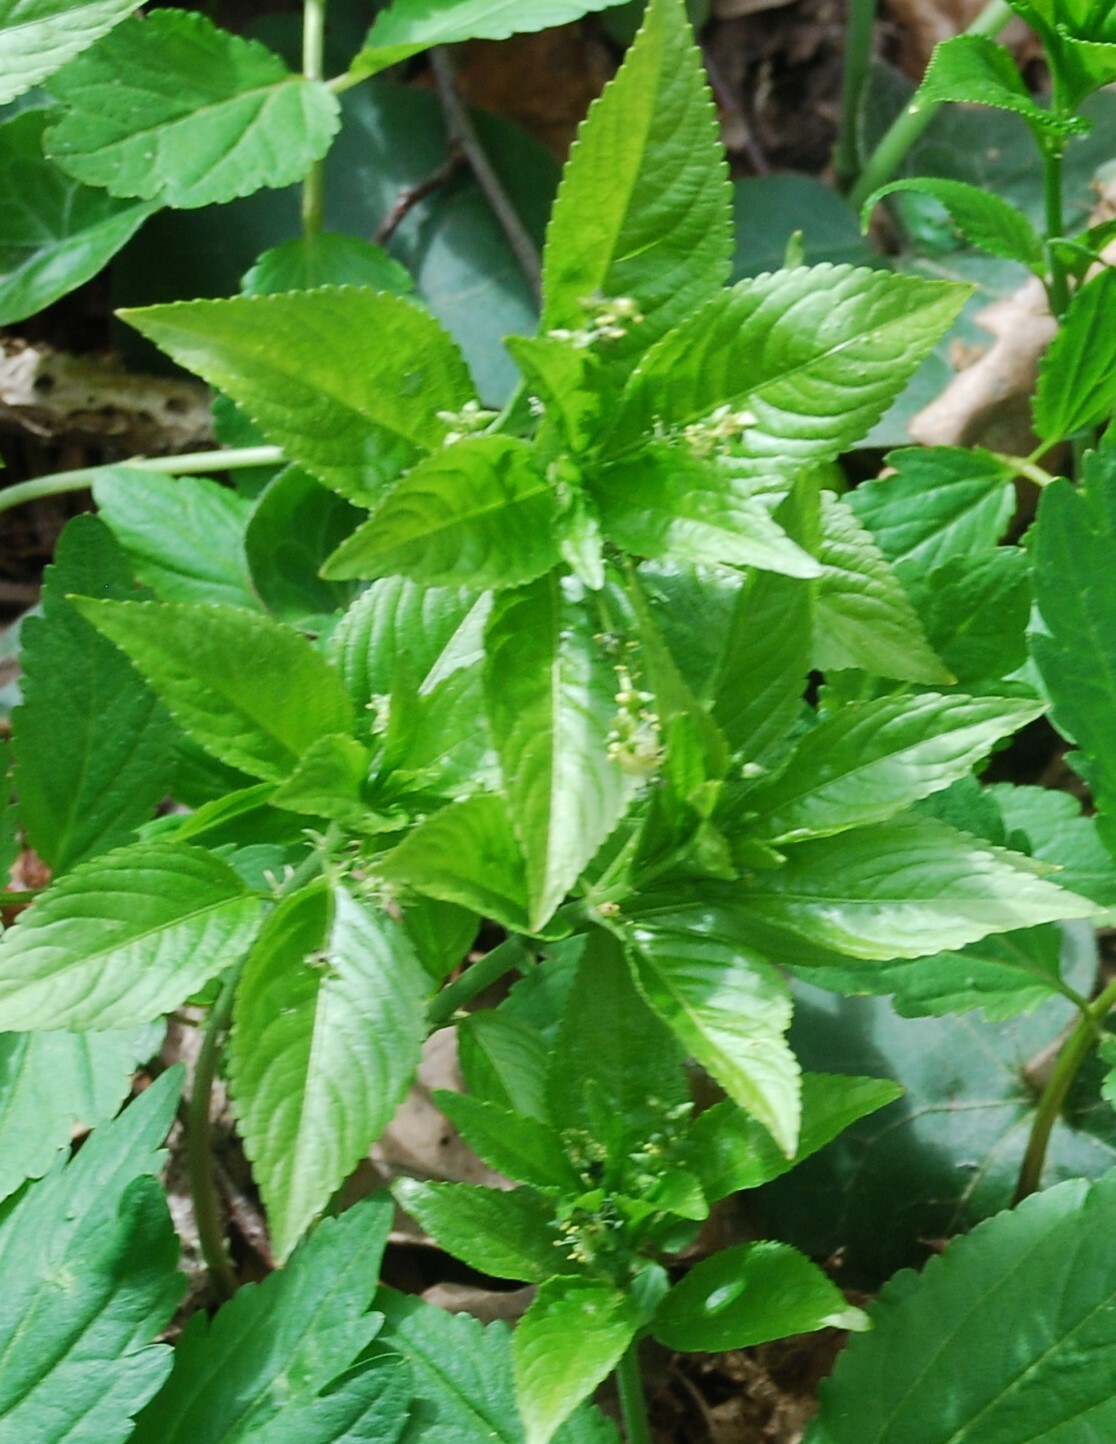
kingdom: Plantae
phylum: Tracheophyta
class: Magnoliopsida
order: Malpighiales
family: Euphorbiaceae
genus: Mercurialis
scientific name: Mercurialis perennis
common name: Dog mercury
